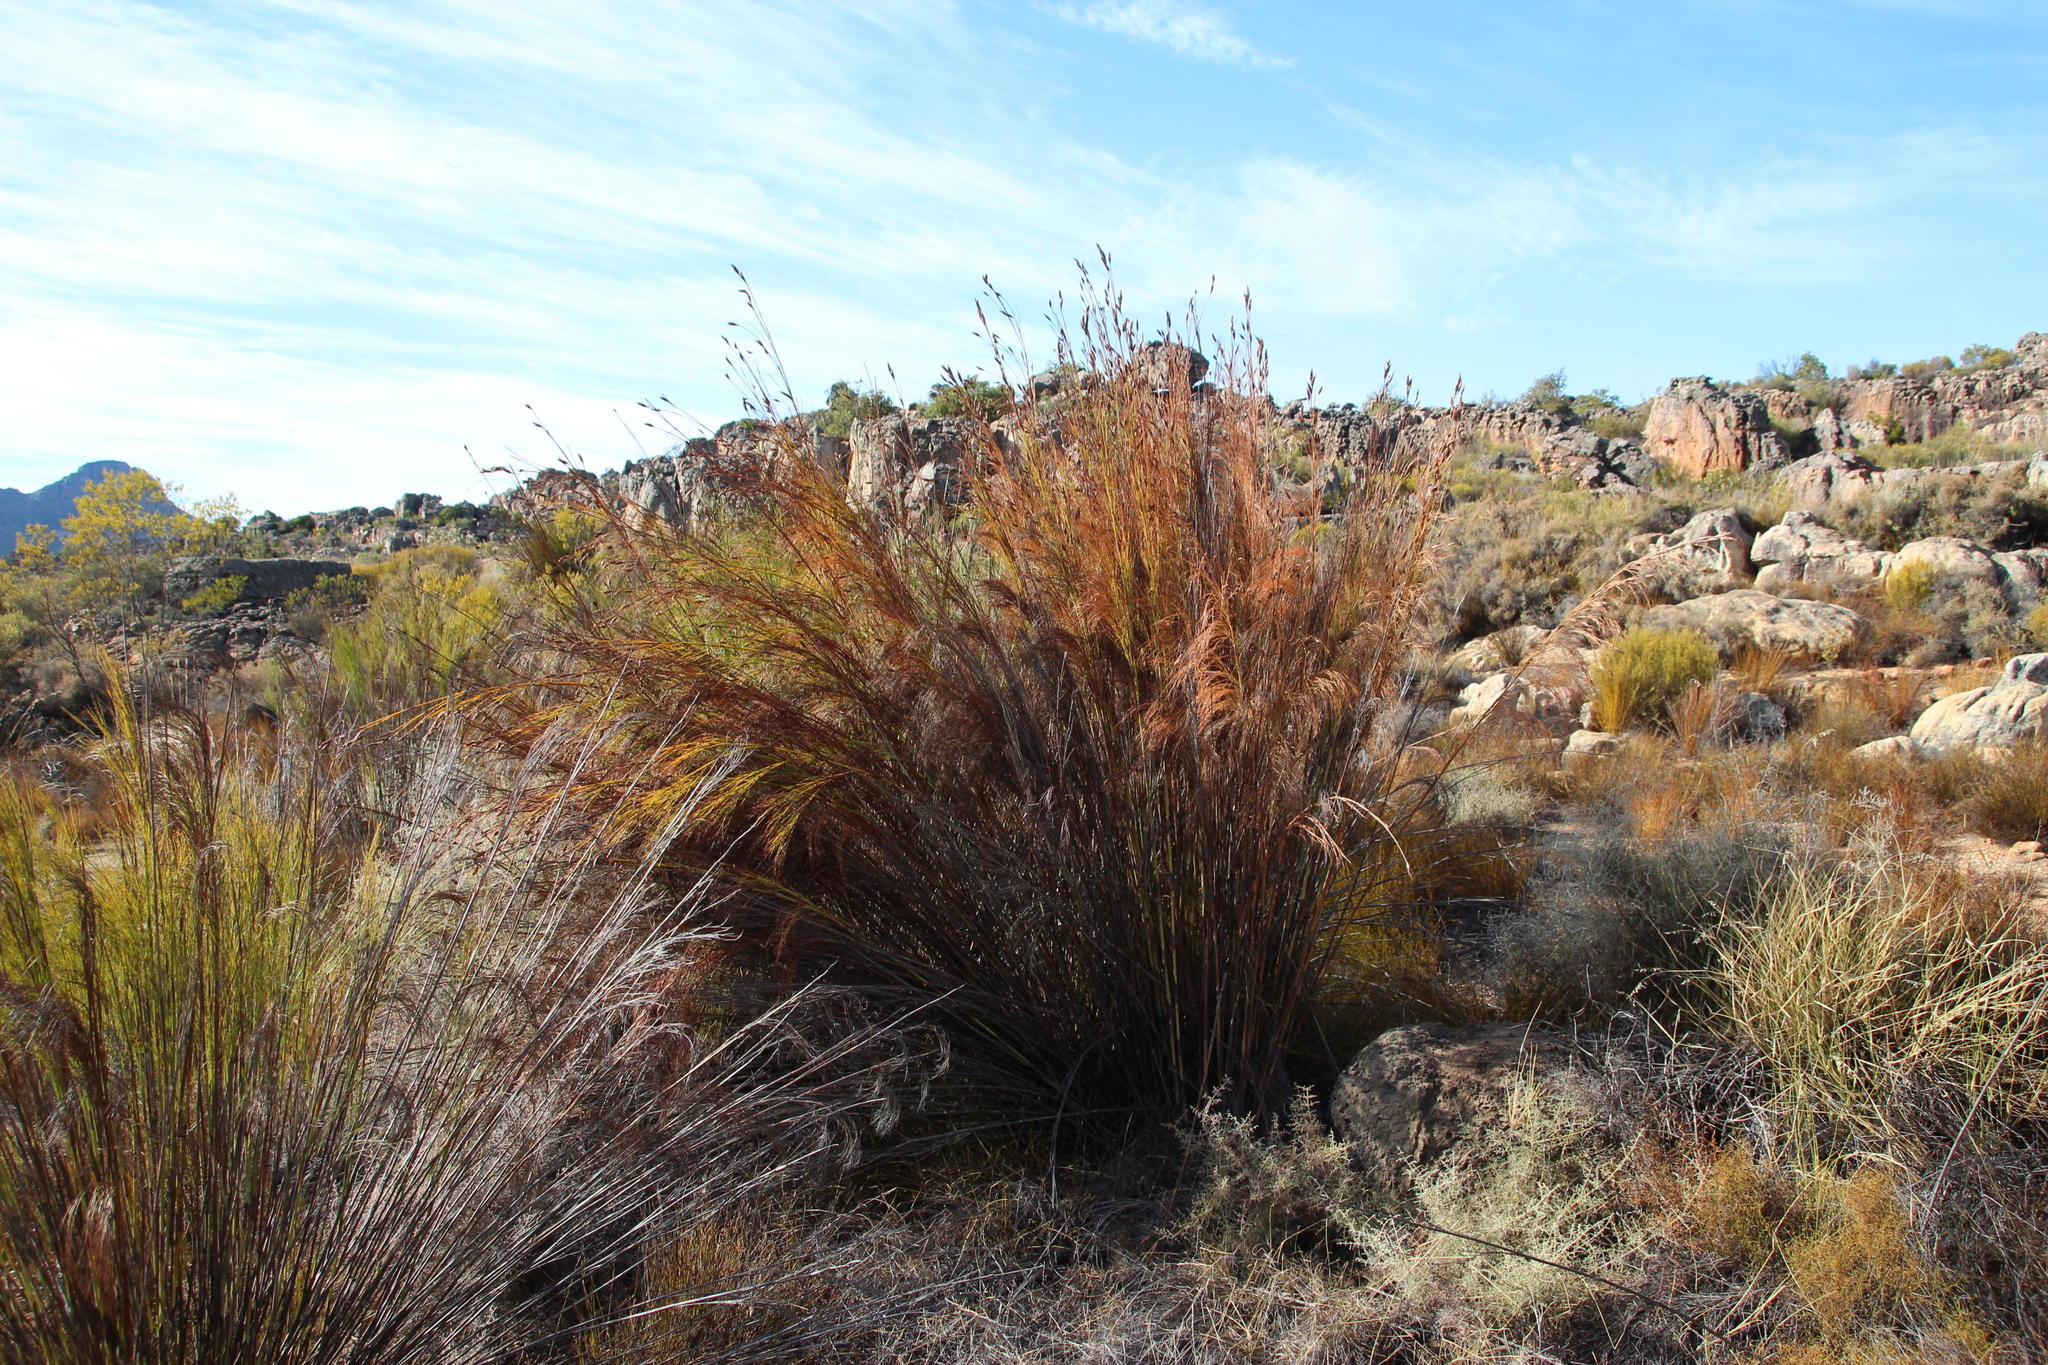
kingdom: Plantae
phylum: Tracheophyta
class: Liliopsida
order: Poales
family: Restionaceae
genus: Cannomois
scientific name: Cannomois robusta
